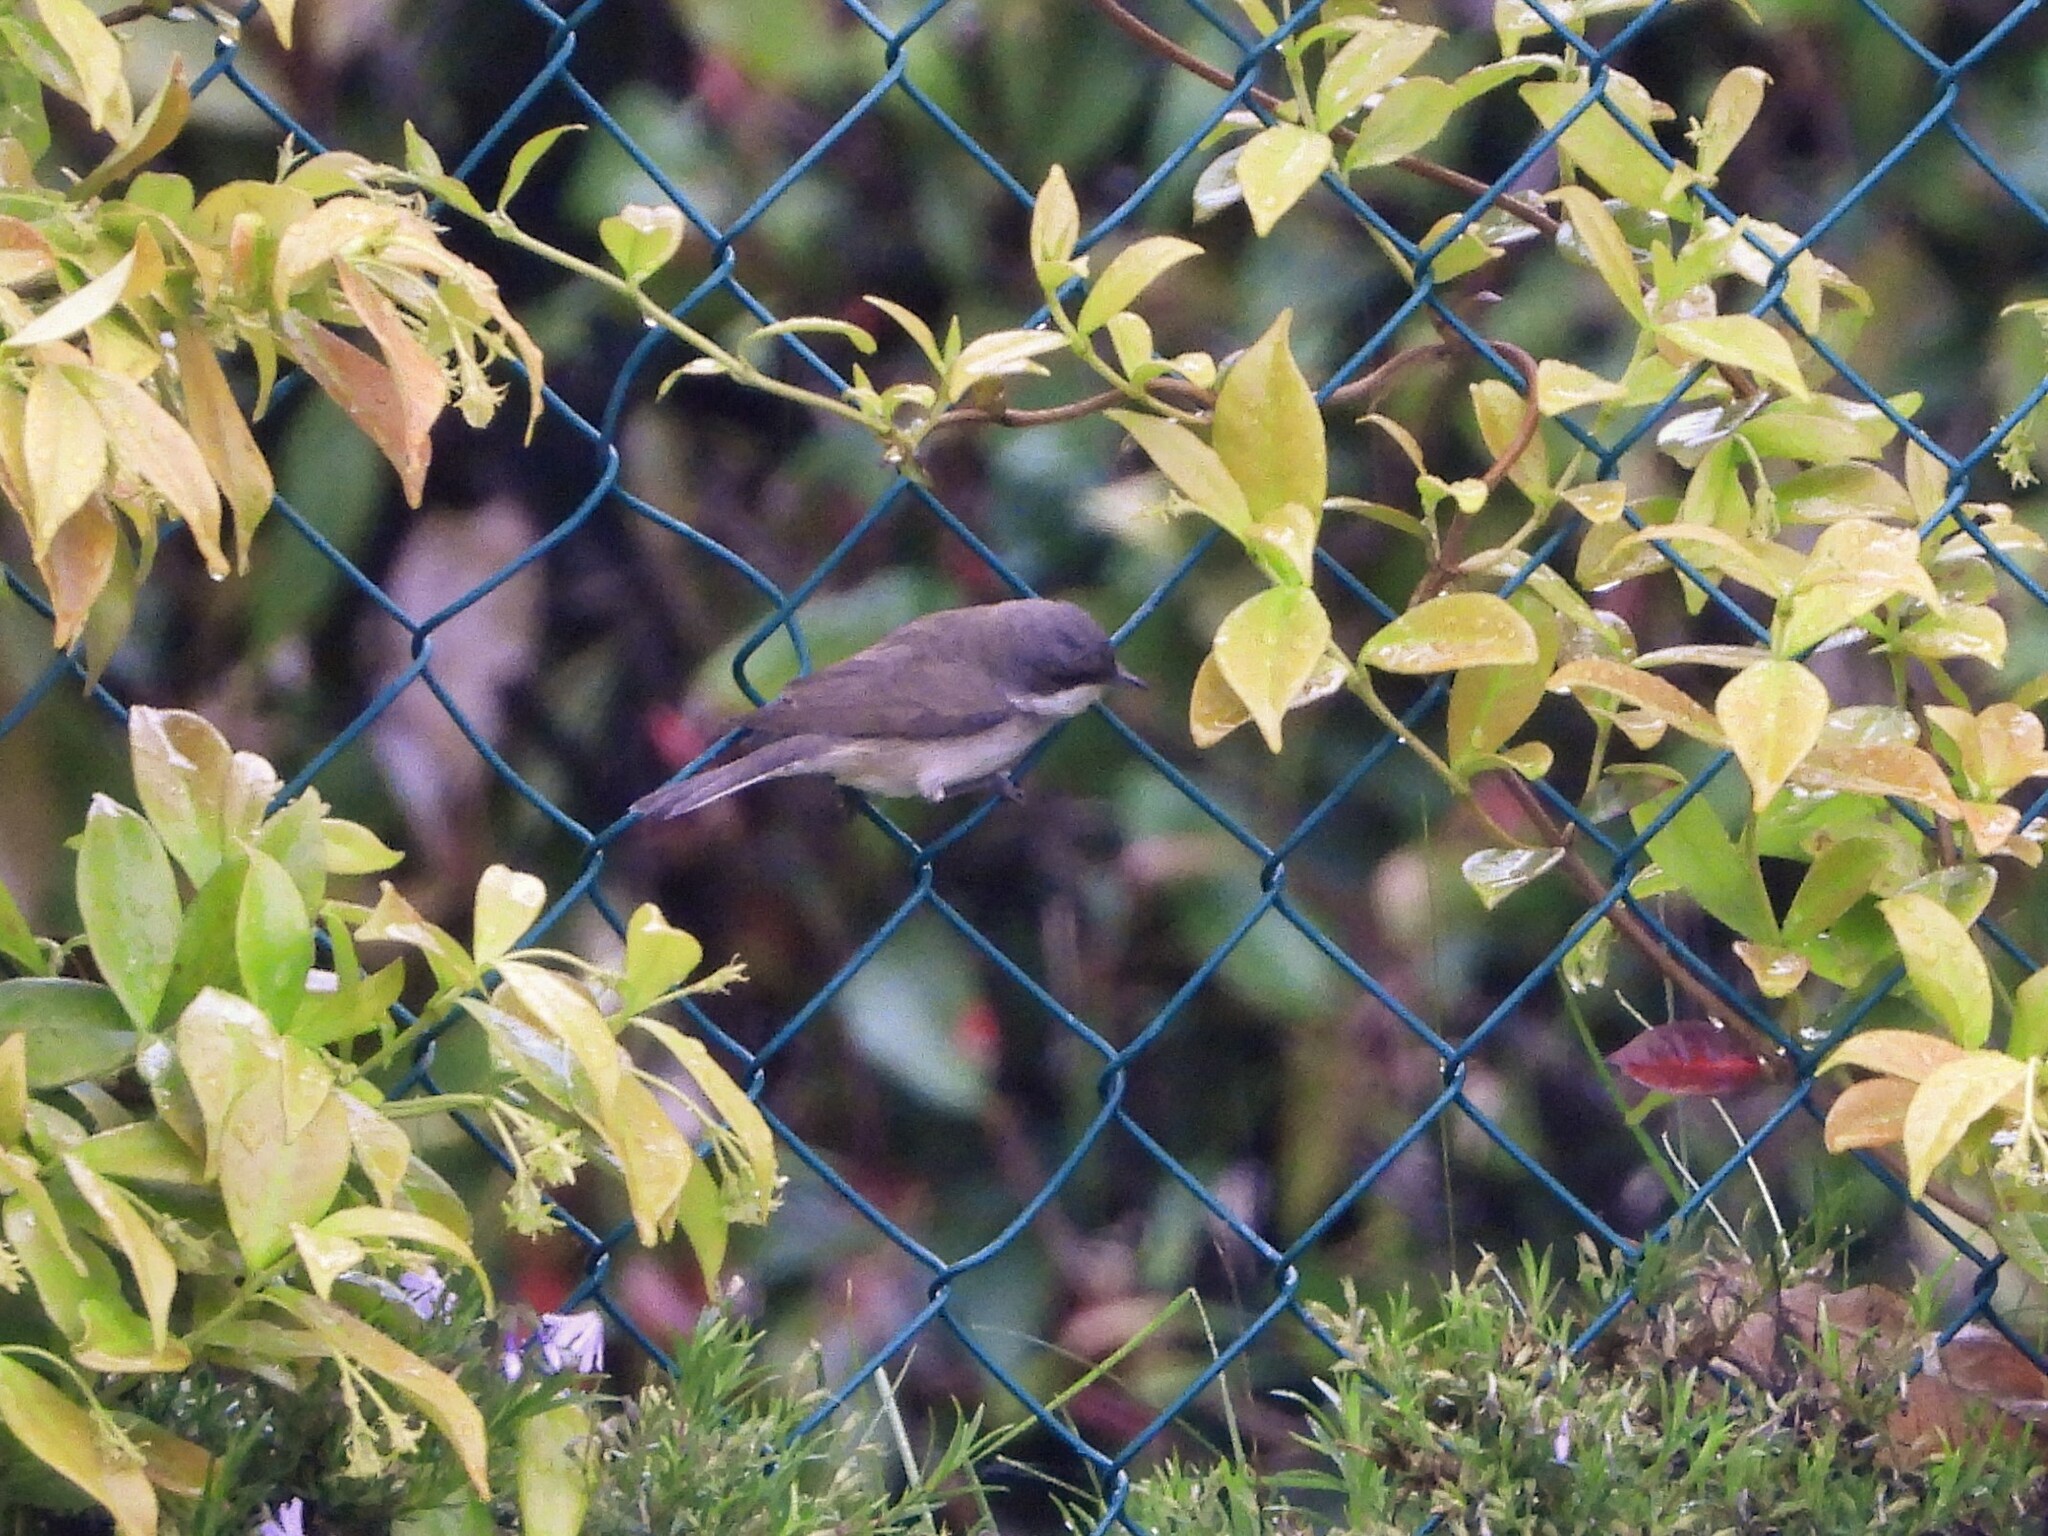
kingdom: Animalia
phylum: Chordata
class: Aves
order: Passeriformes
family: Sylviidae
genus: Sylvia
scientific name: Sylvia curruca
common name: Lesser whitethroat
